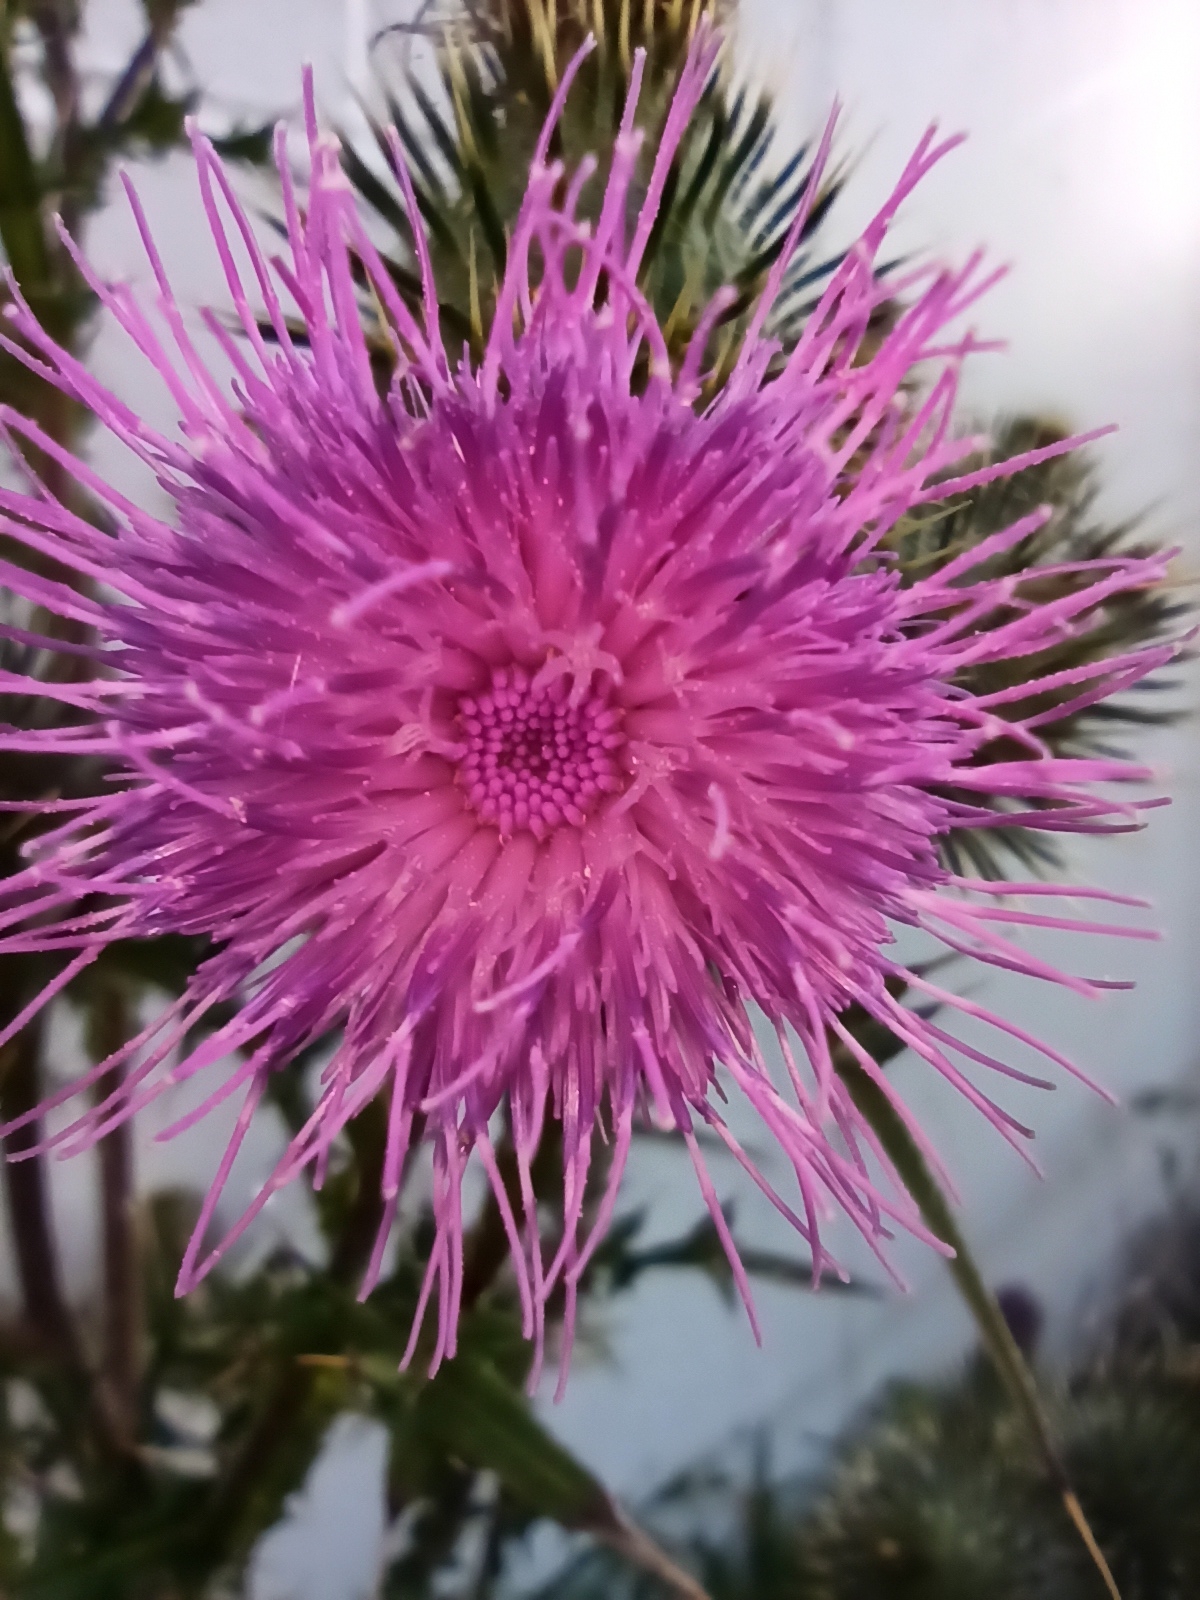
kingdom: Plantae
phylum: Tracheophyta
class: Magnoliopsida
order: Asterales
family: Asteraceae
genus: Cirsium
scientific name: Cirsium vulgare
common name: Bull thistle
